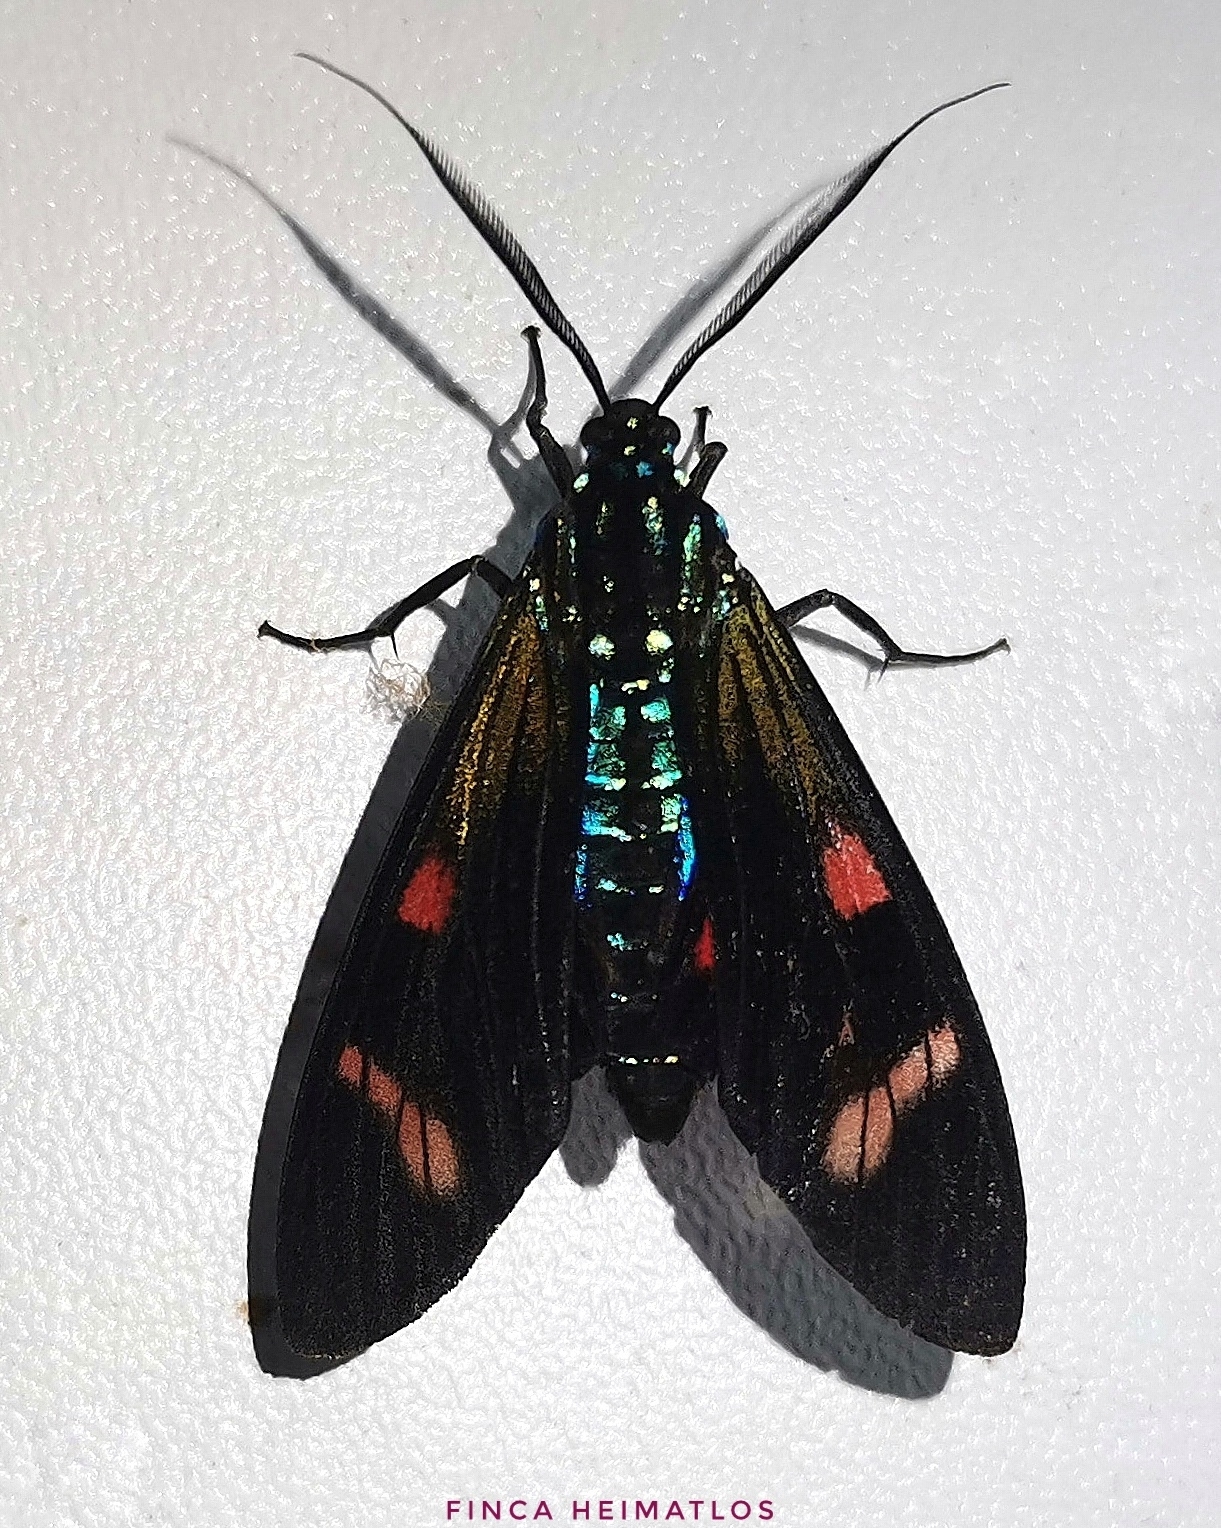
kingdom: Animalia
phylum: Arthropoda
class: Insecta
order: Lepidoptera
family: Erebidae
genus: Diospage
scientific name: Diospage splendens
